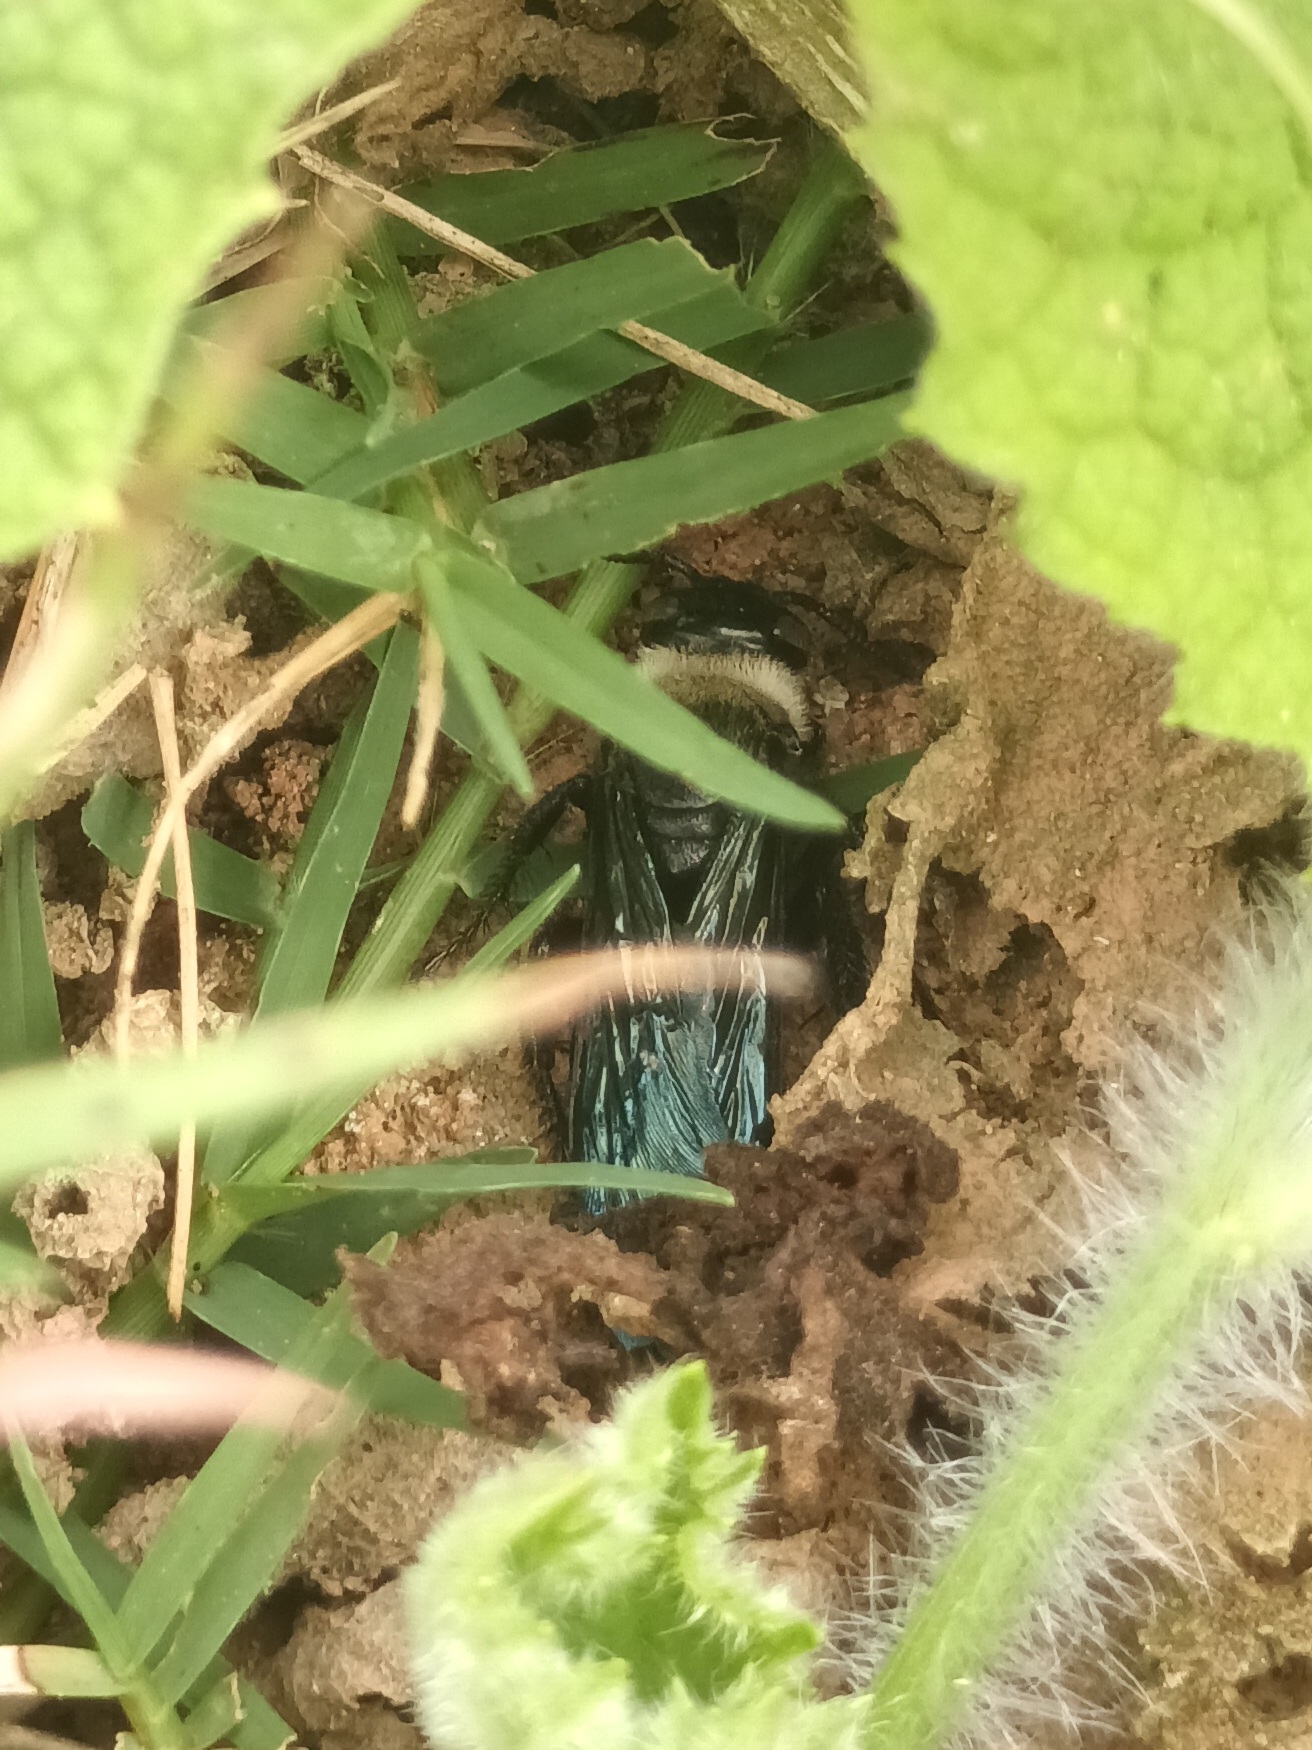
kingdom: Animalia
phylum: Arthropoda
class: Insecta
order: Hymenoptera
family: Scoliidae
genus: Campsomeriella
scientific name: Campsomeriella collaris
